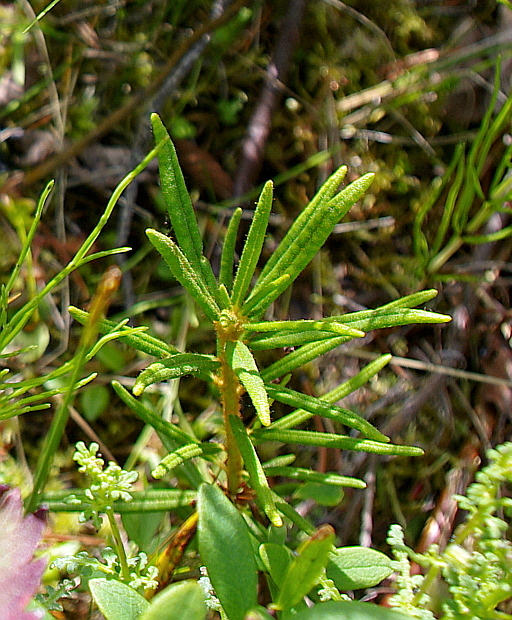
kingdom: Plantae
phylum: Tracheophyta
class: Magnoliopsida
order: Ericales
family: Ericaceae
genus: Rhododendron
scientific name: Rhododendron tomentosum
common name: Marsh labrador tea
